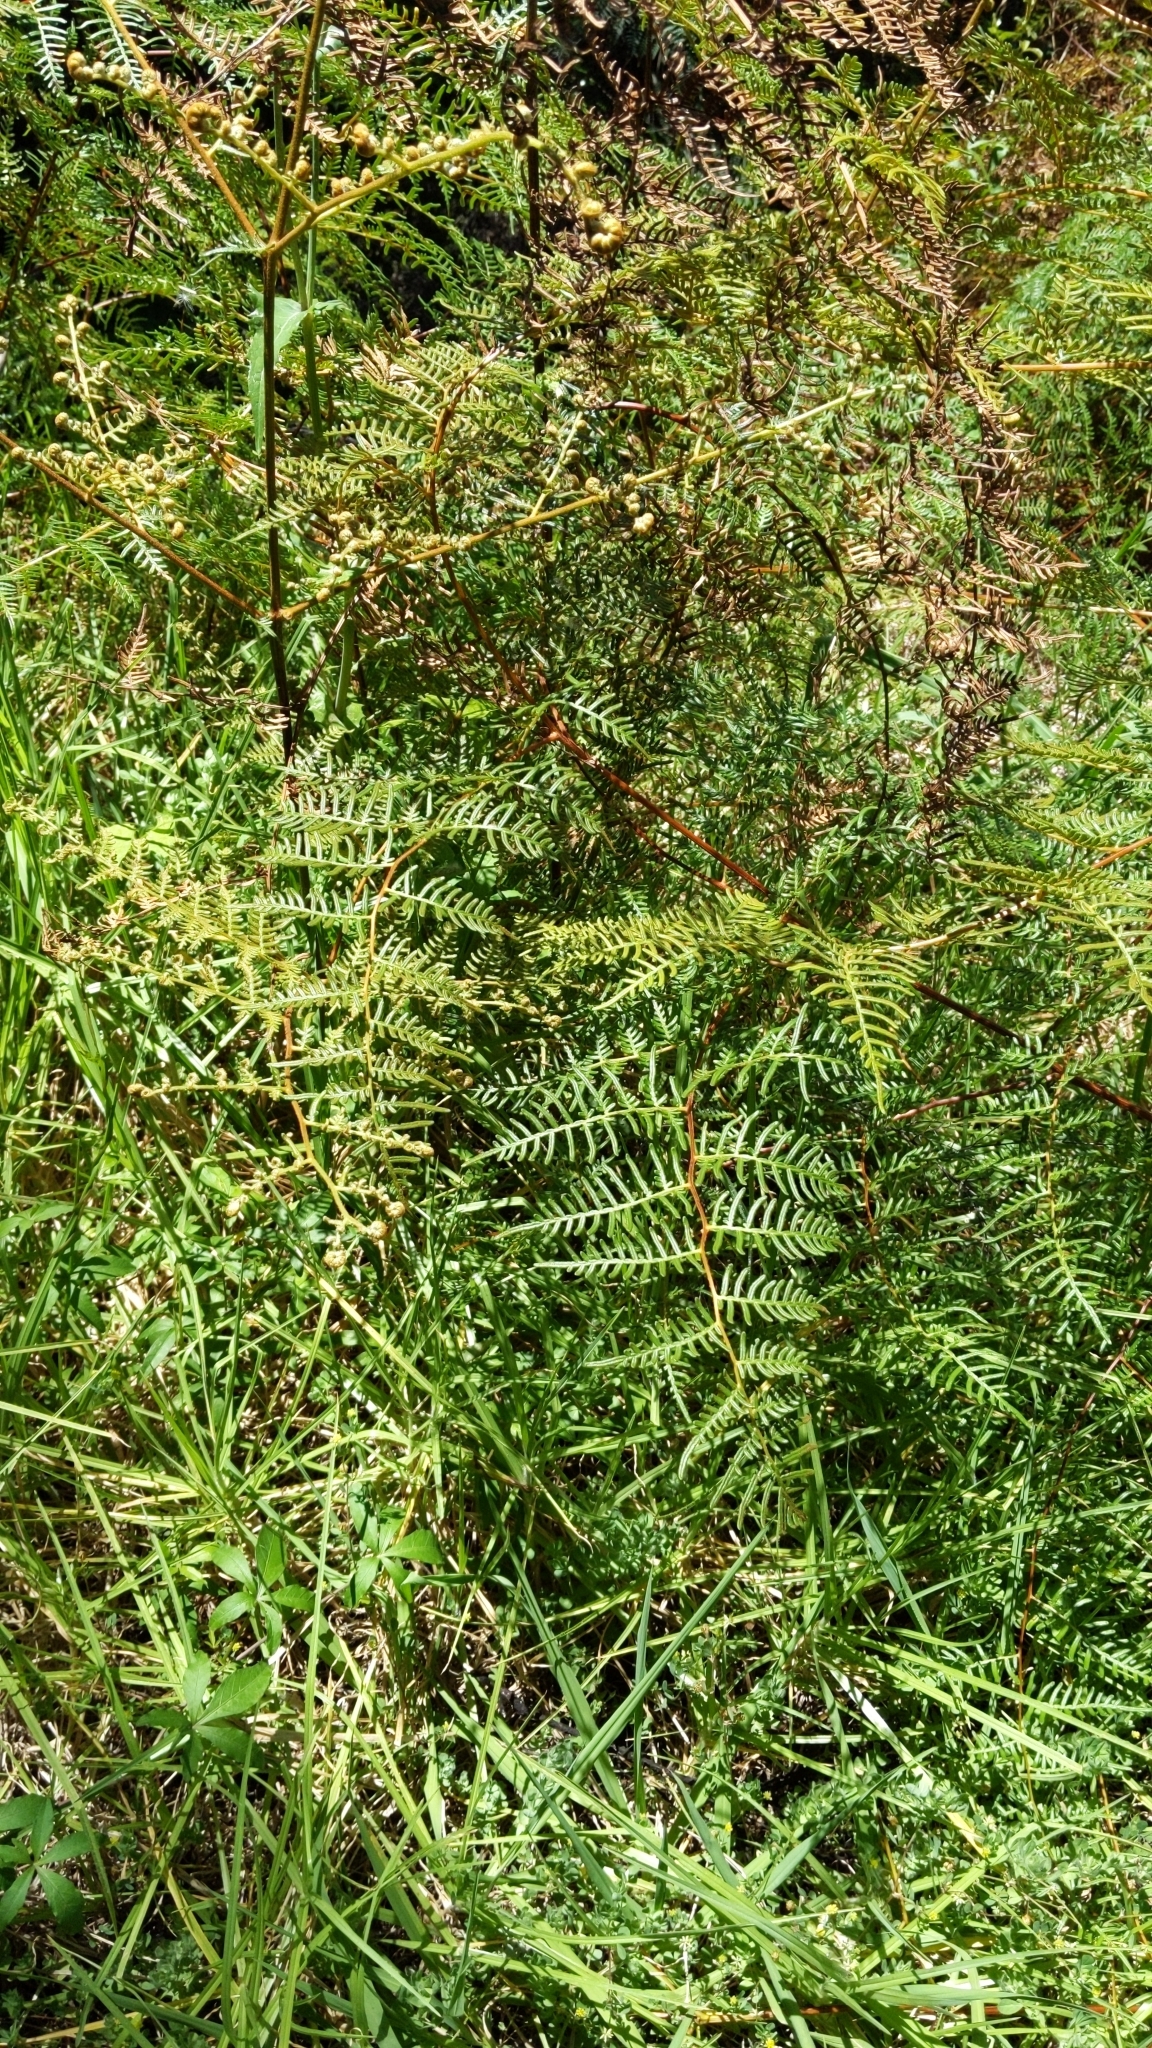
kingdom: Plantae
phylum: Tracheophyta
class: Polypodiopsida
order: Polypodiales
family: Dennstaedtiaceae
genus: Pteridium
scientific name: Pteridium esculentum
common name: Bracken fern
